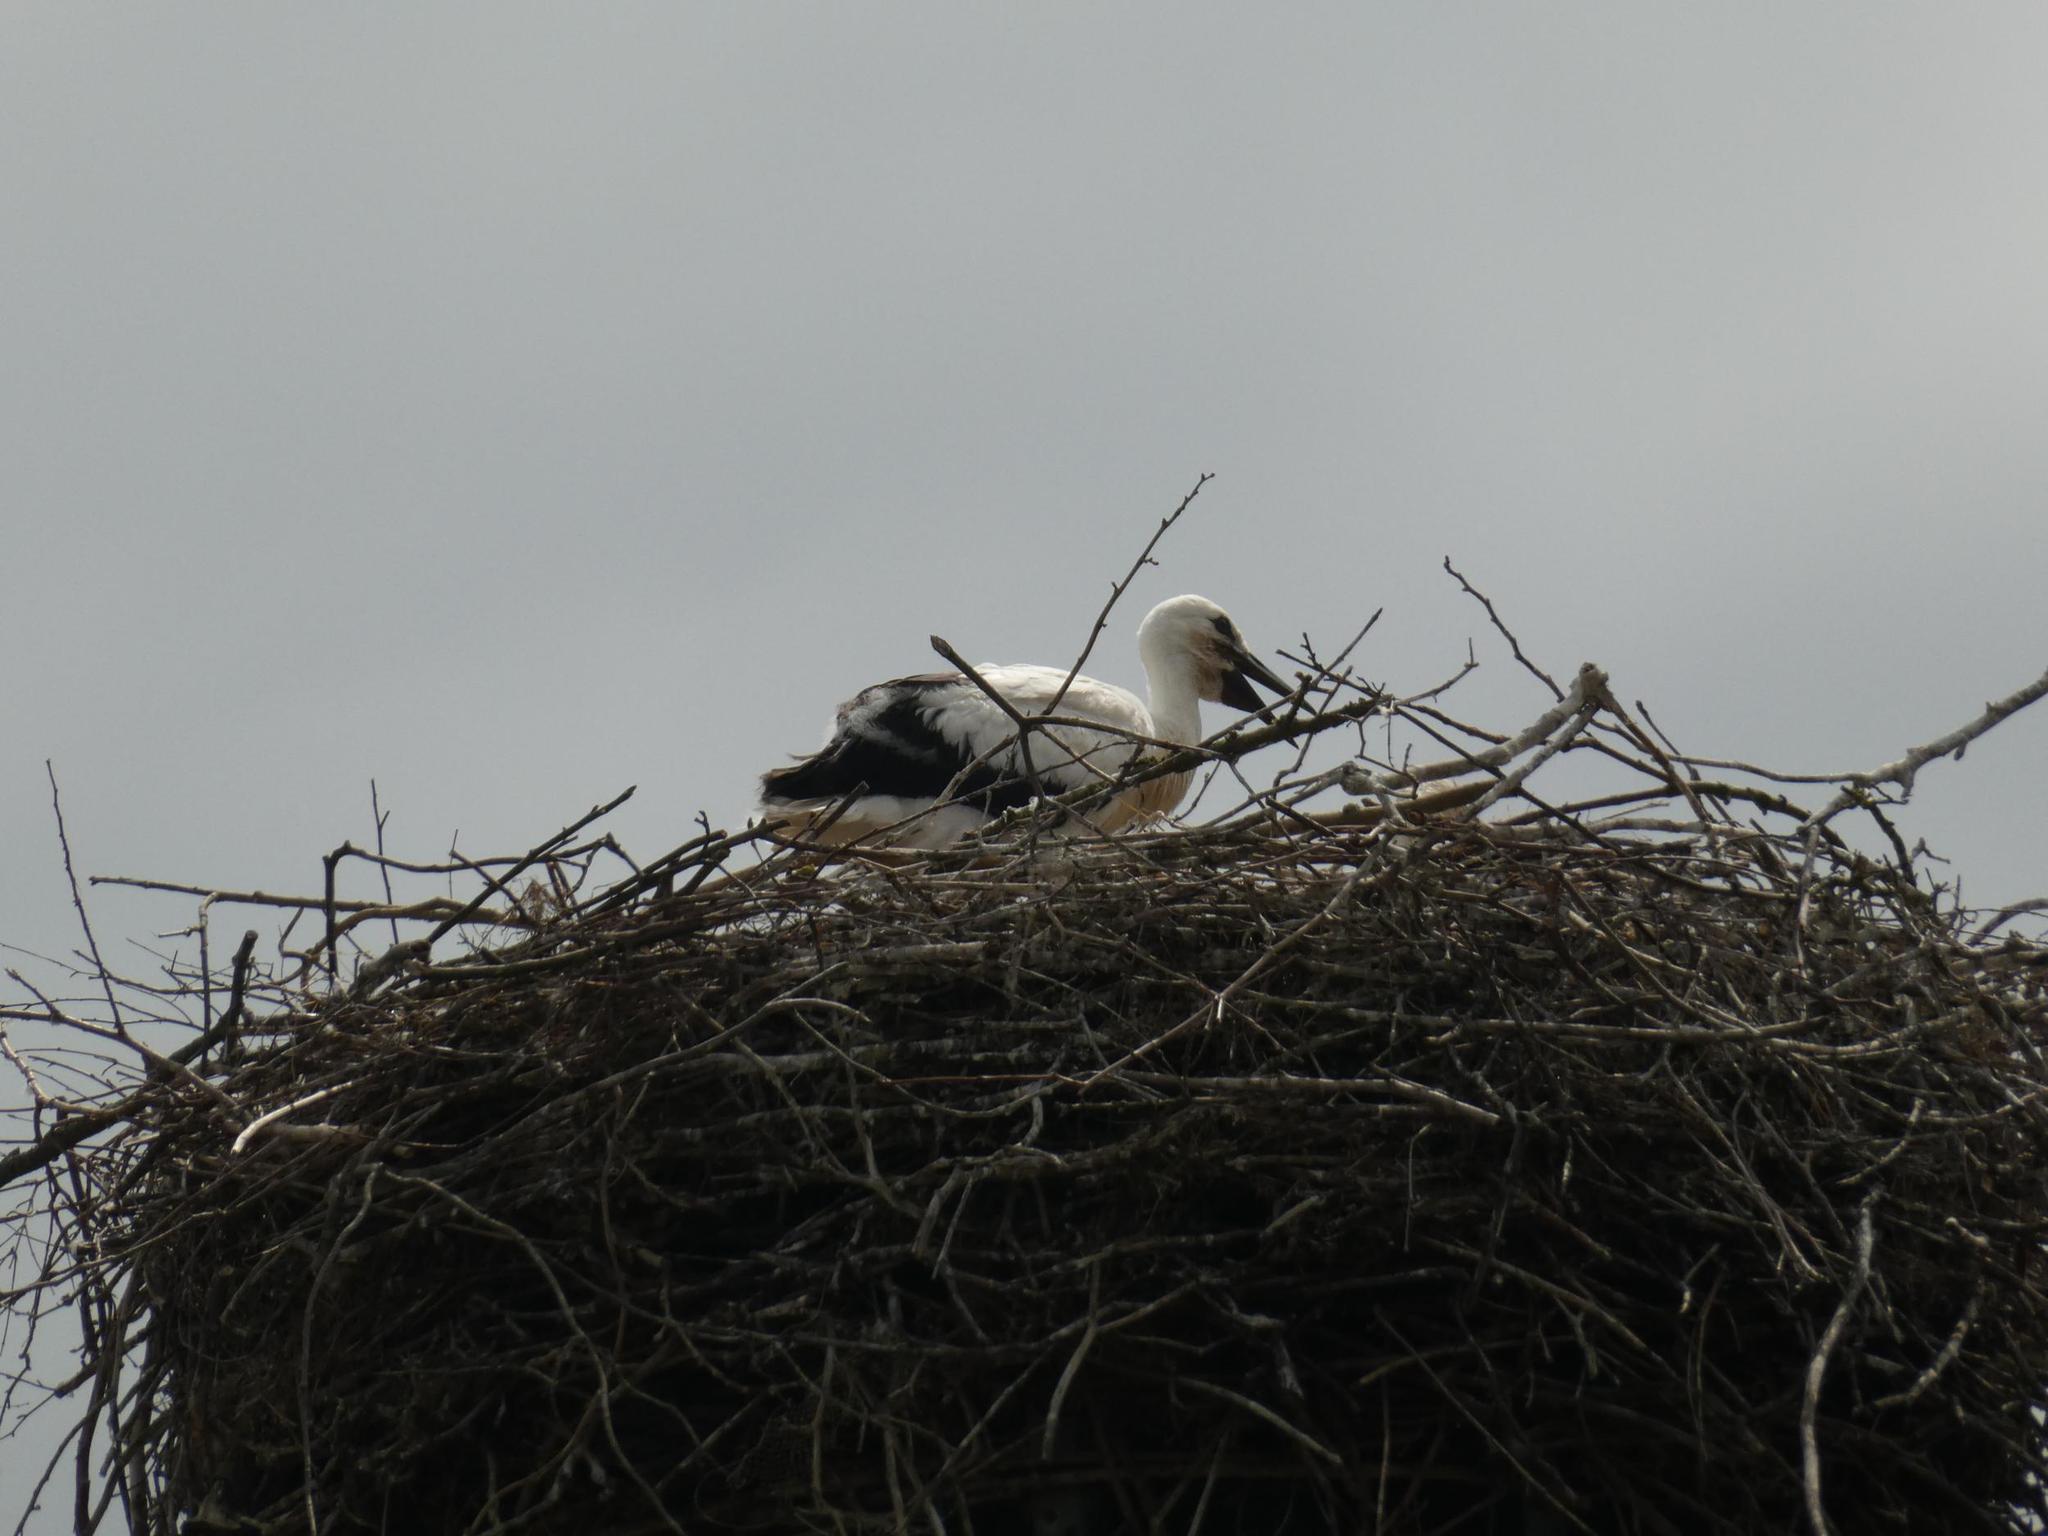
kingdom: Animalia
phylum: Chordata
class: Aves
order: Ciconiiformes
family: Ciconiidae
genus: Ciconia
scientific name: Ciconia ciconia
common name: White stork
